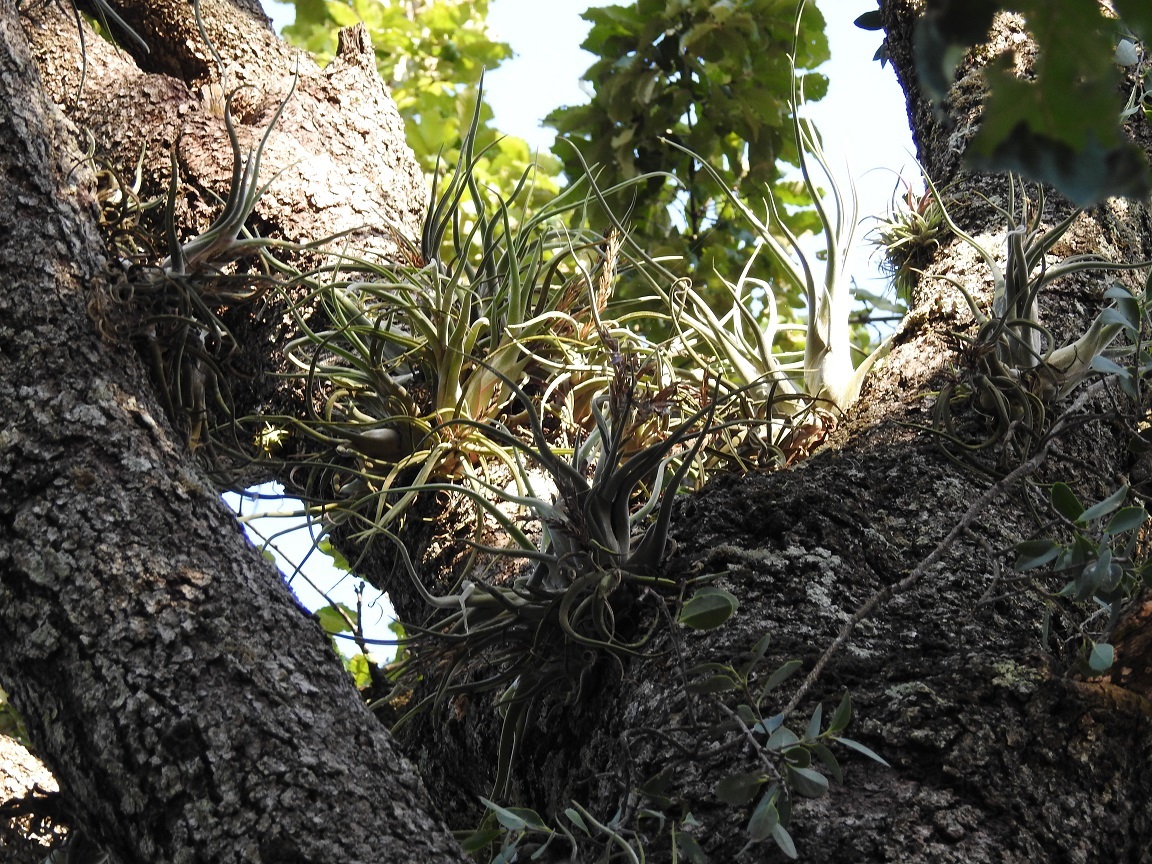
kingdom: Plantae
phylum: Tracheophyta
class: Liliopsida
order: Poales
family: Bromeliaceae
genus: Tillandsia
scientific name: Tillandsia caput-medusae
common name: Octopus plant
